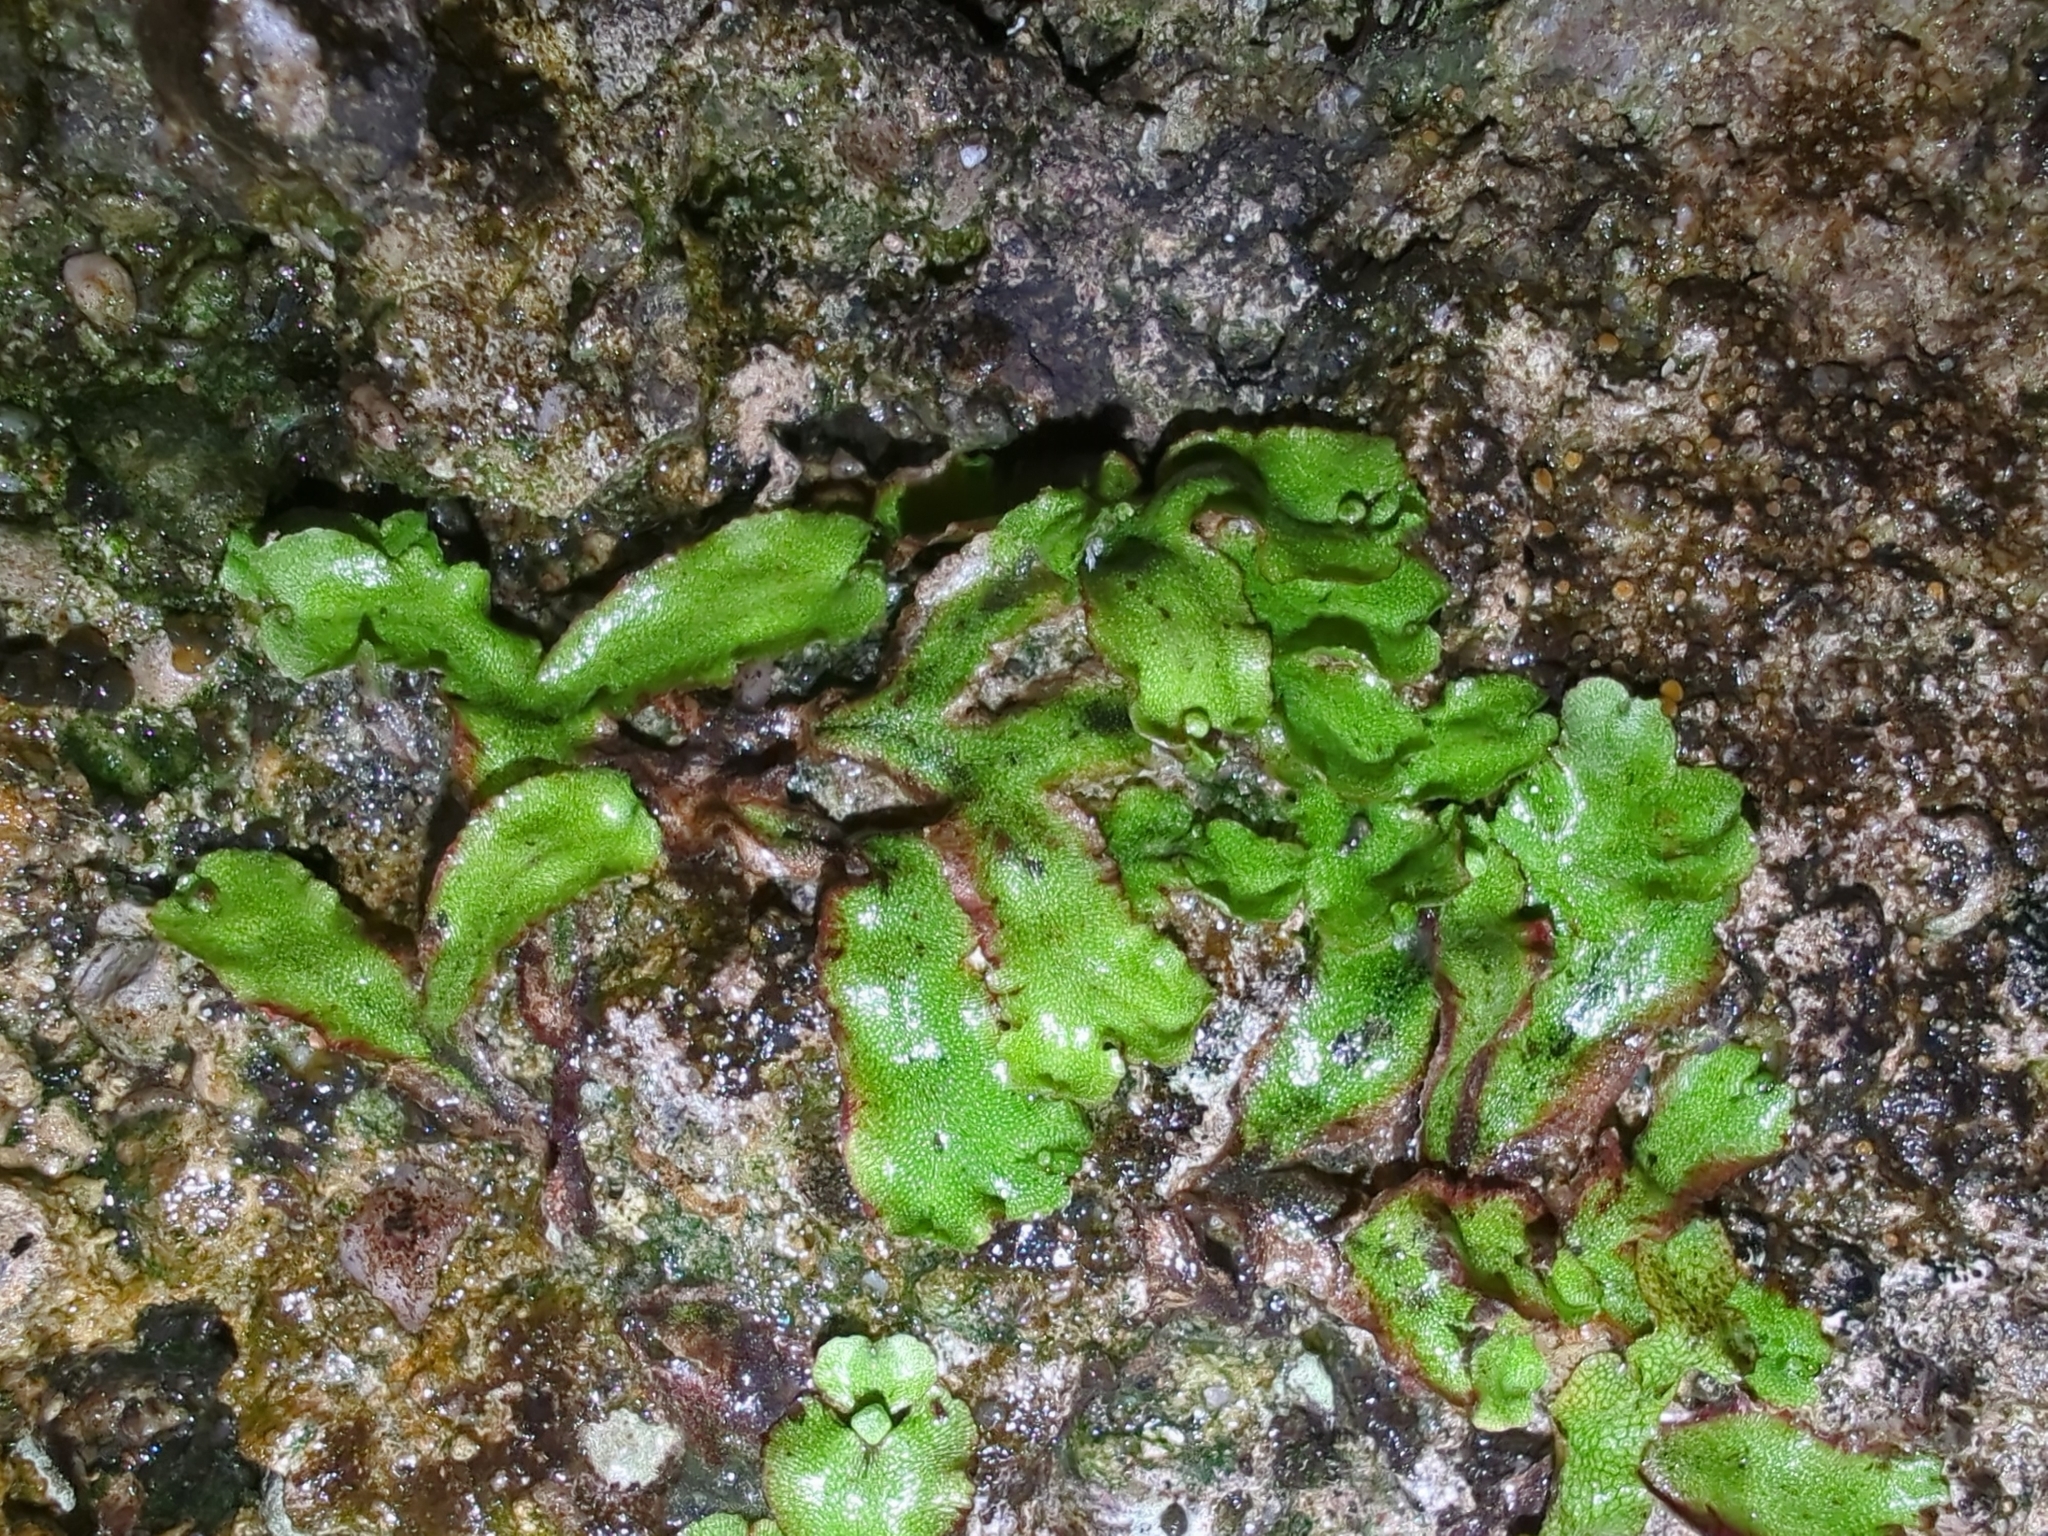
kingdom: Plantae
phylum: Marchantiophyta
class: Marchantiopsida
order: Marchantiales
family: Marchantiaceae
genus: Marchantia
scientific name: Marchantia quadrata
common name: Narrow mushroom-headed liverwort
